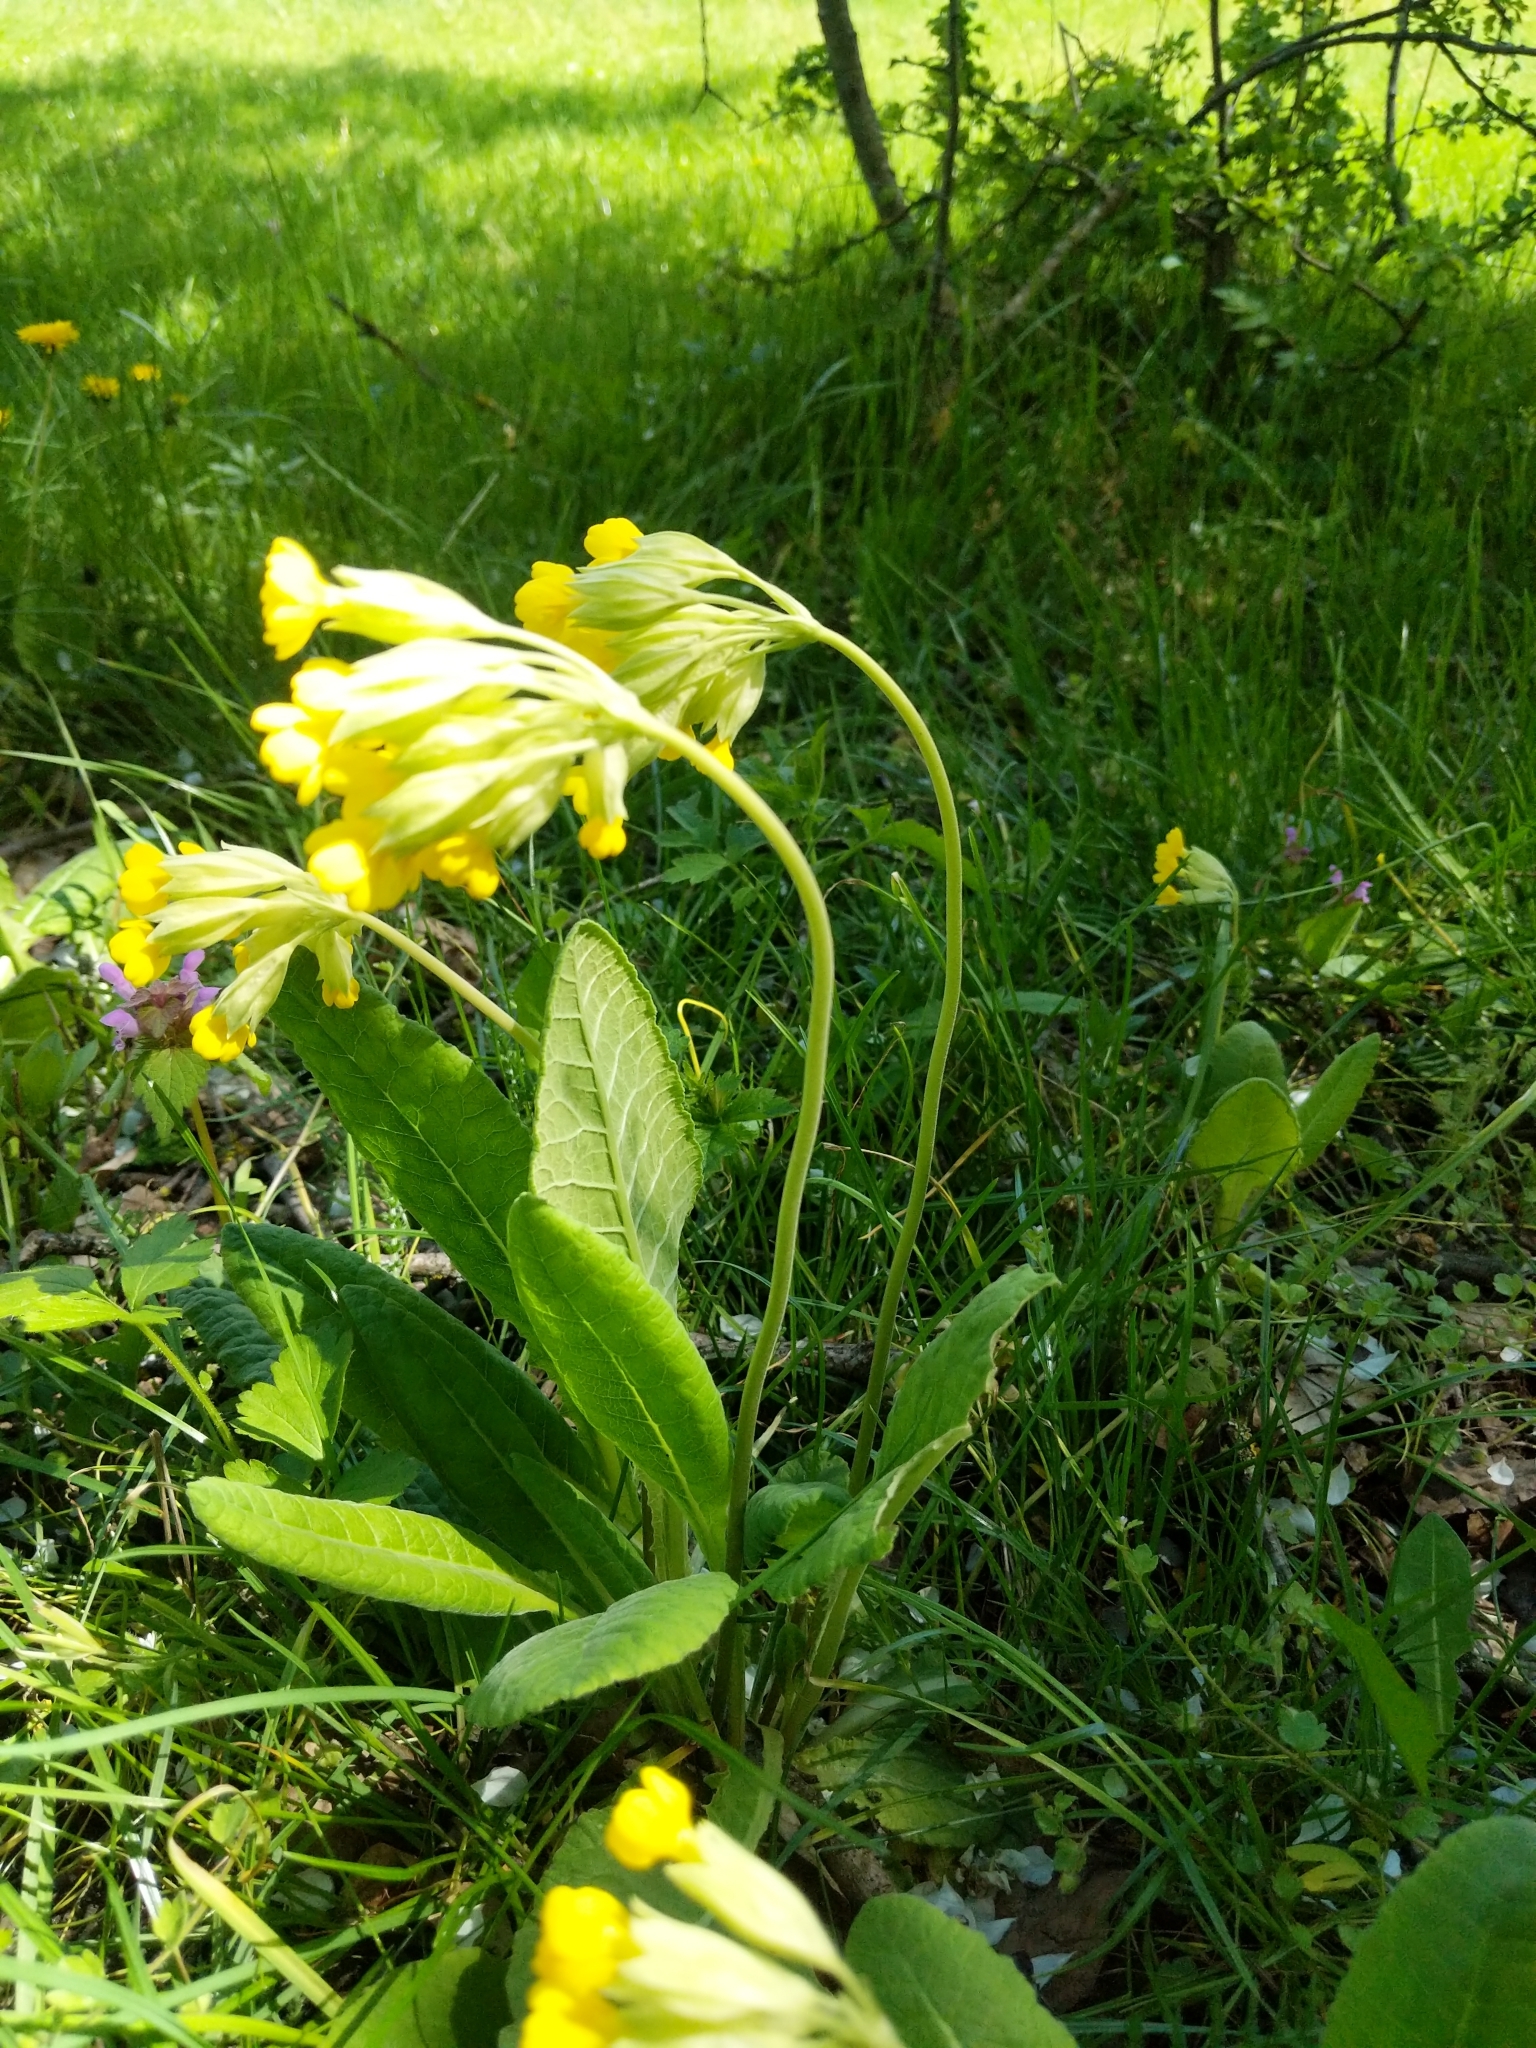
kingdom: Plantae
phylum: Tracheophyta
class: Magnoliopsida
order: Ericales
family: Primulaceae
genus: Primula
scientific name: Primula veris
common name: Cowslip
